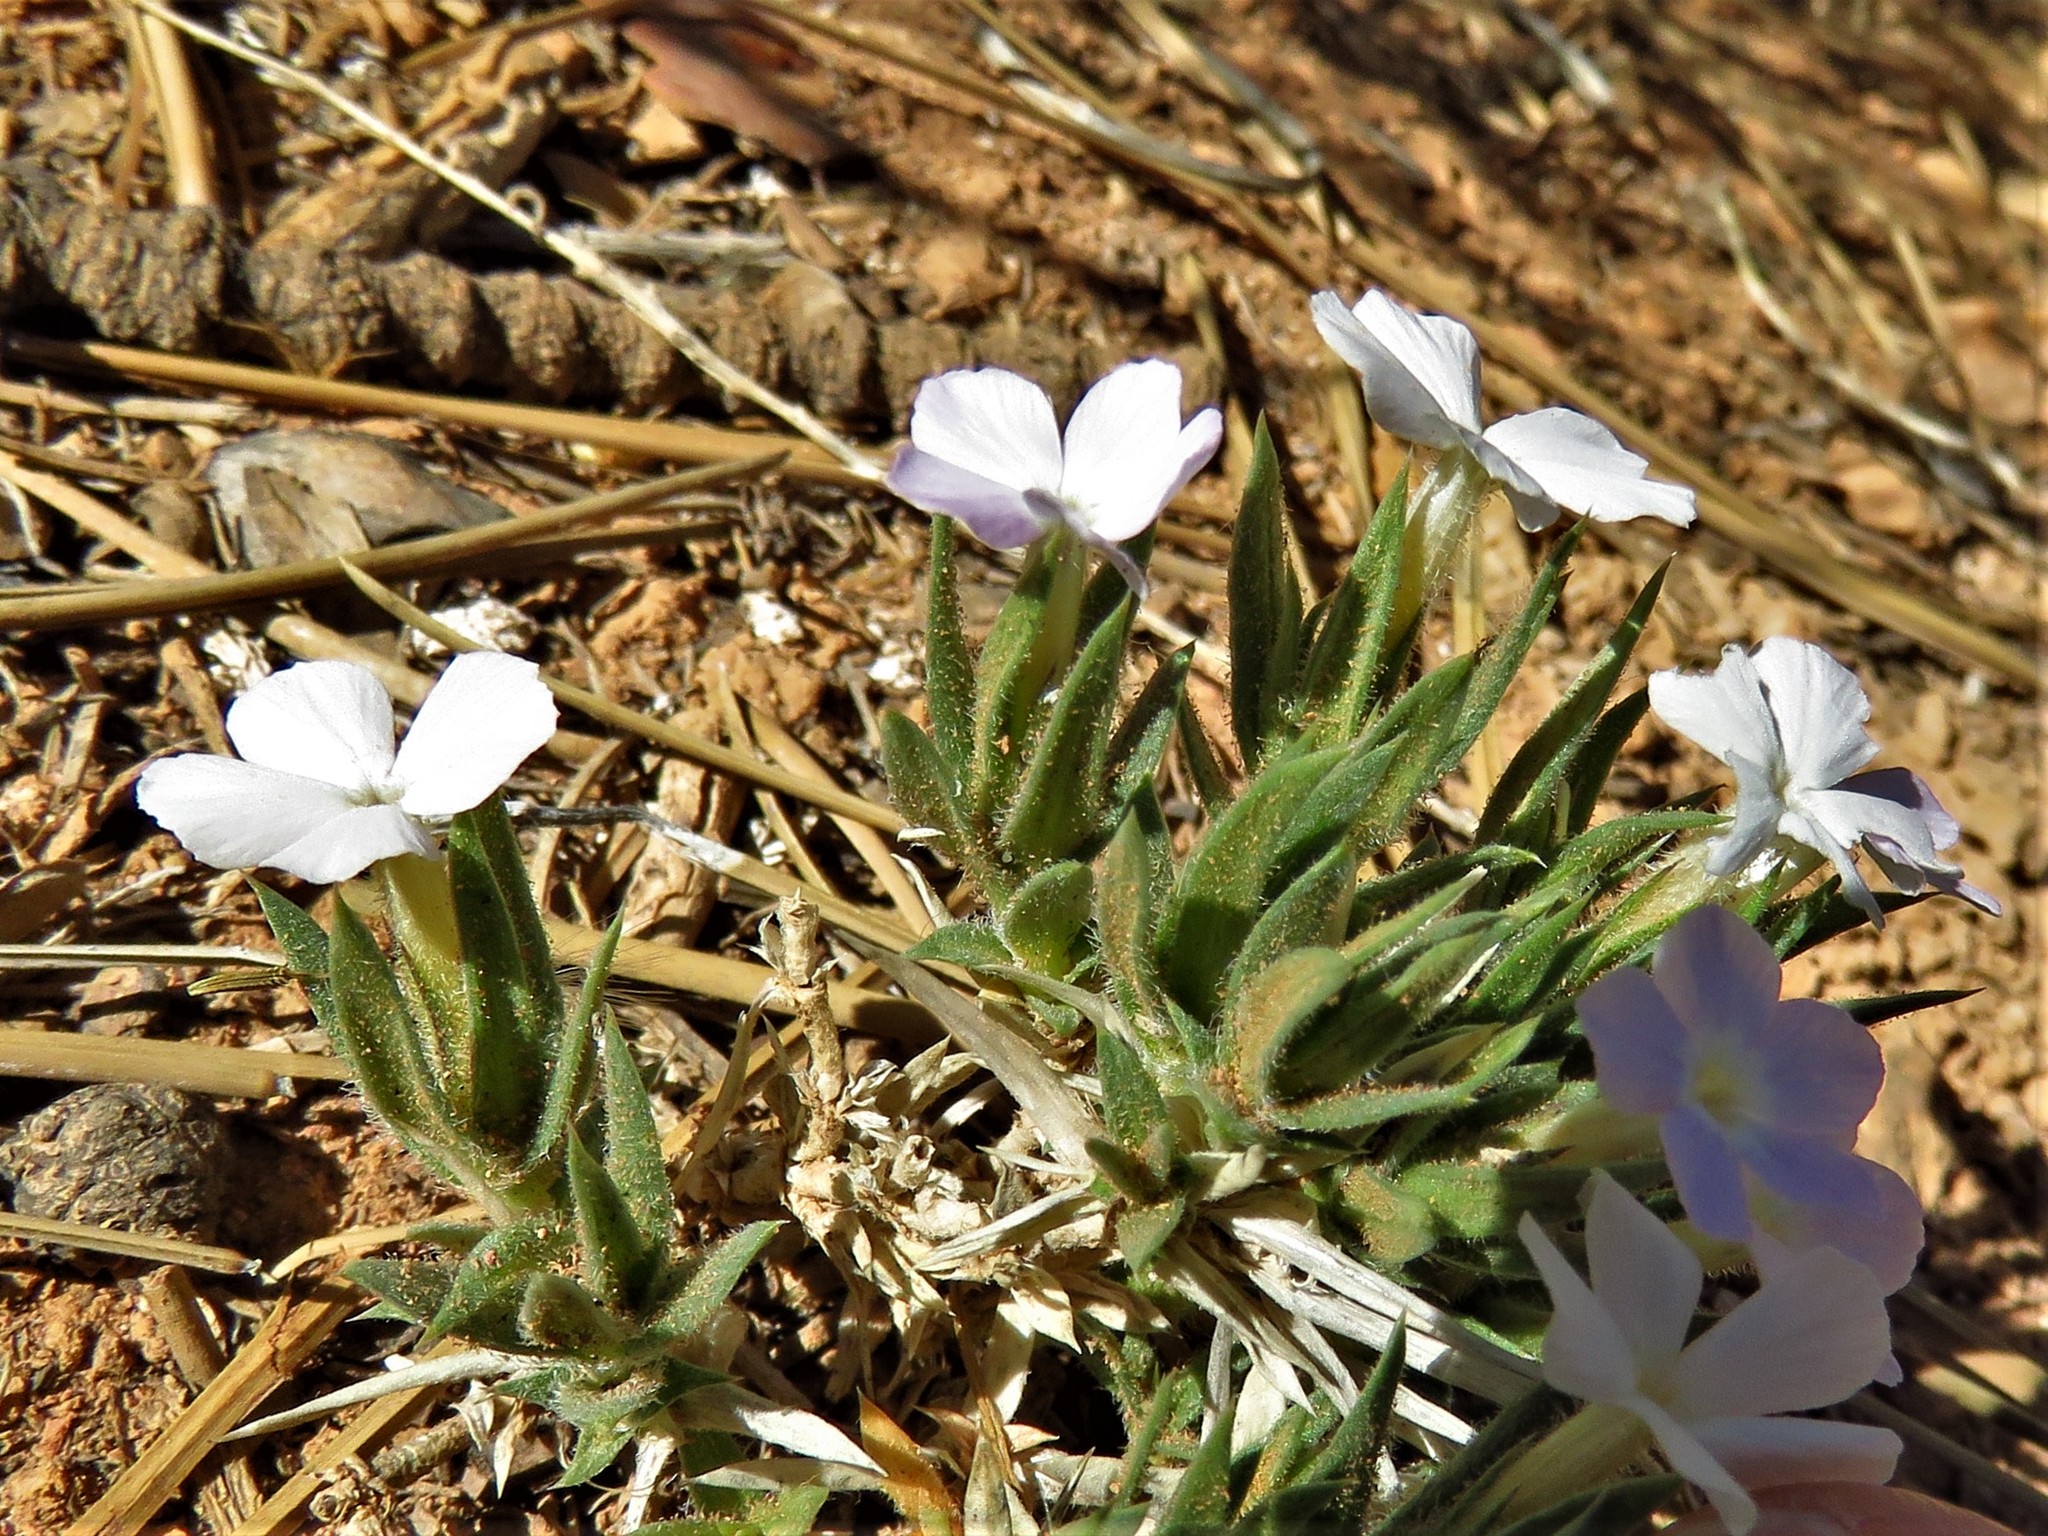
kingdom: Plantae
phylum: Tracheophyta
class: Magnoliopsida
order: Ericales
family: Polemoniaceae
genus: Phlox
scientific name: Phlox gladiformis
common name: Dagger-leaf phlox
